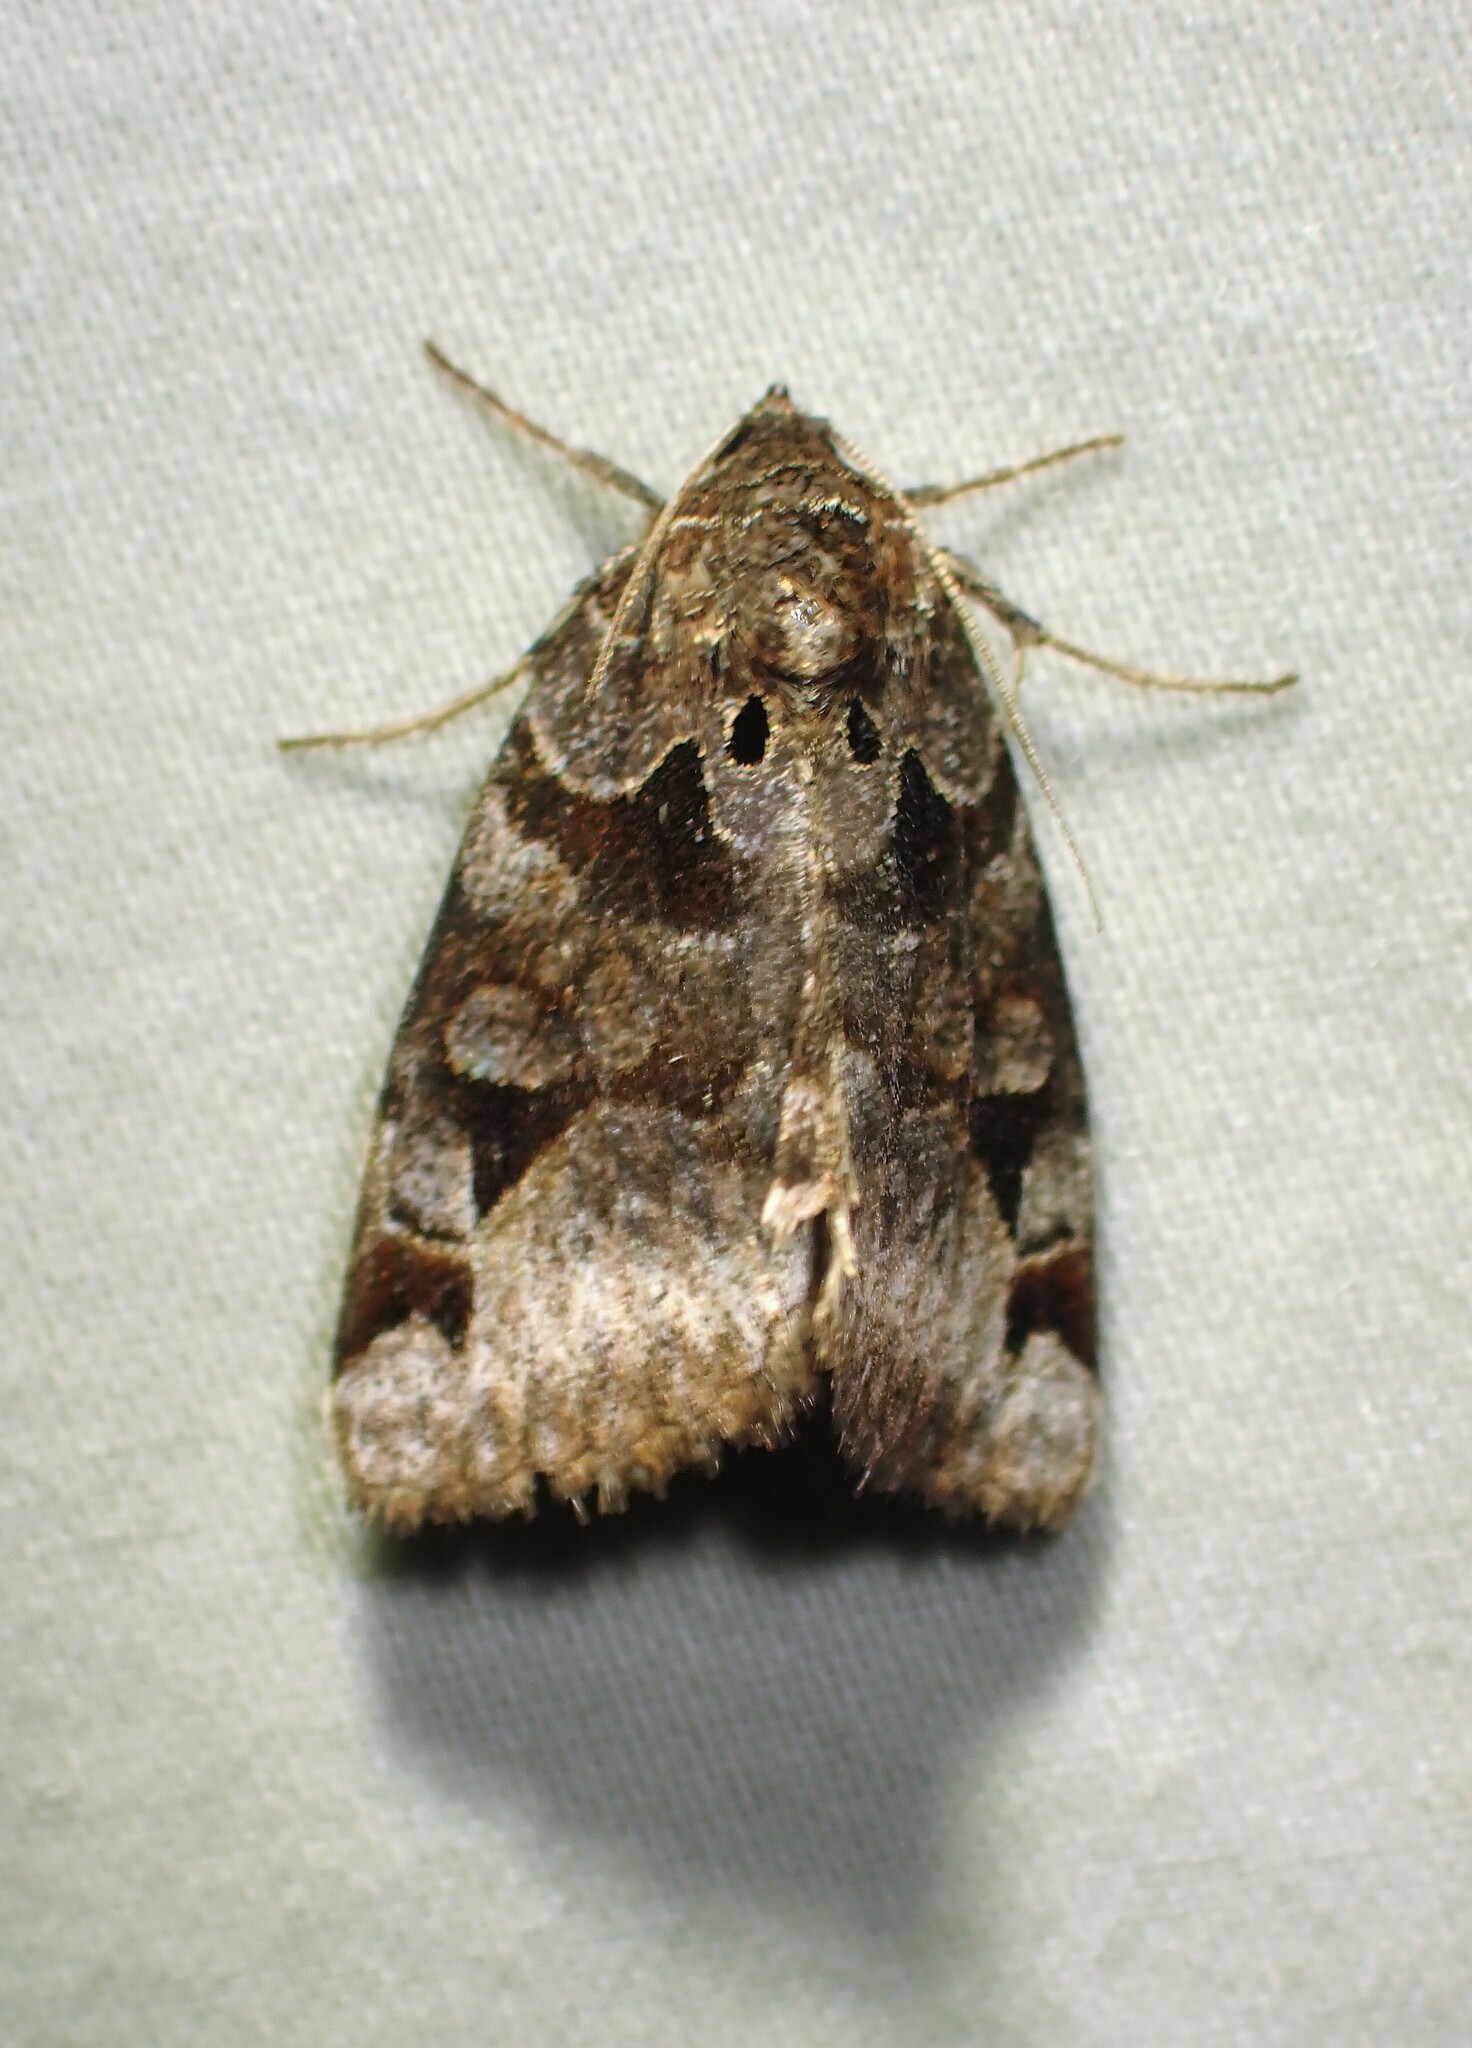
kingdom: Animalia
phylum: Arthropoda
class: Insecta
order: Lepidoptera
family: Erebidae
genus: Euclidia
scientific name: Euclidia cuspidea
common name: Toothed somberwing
